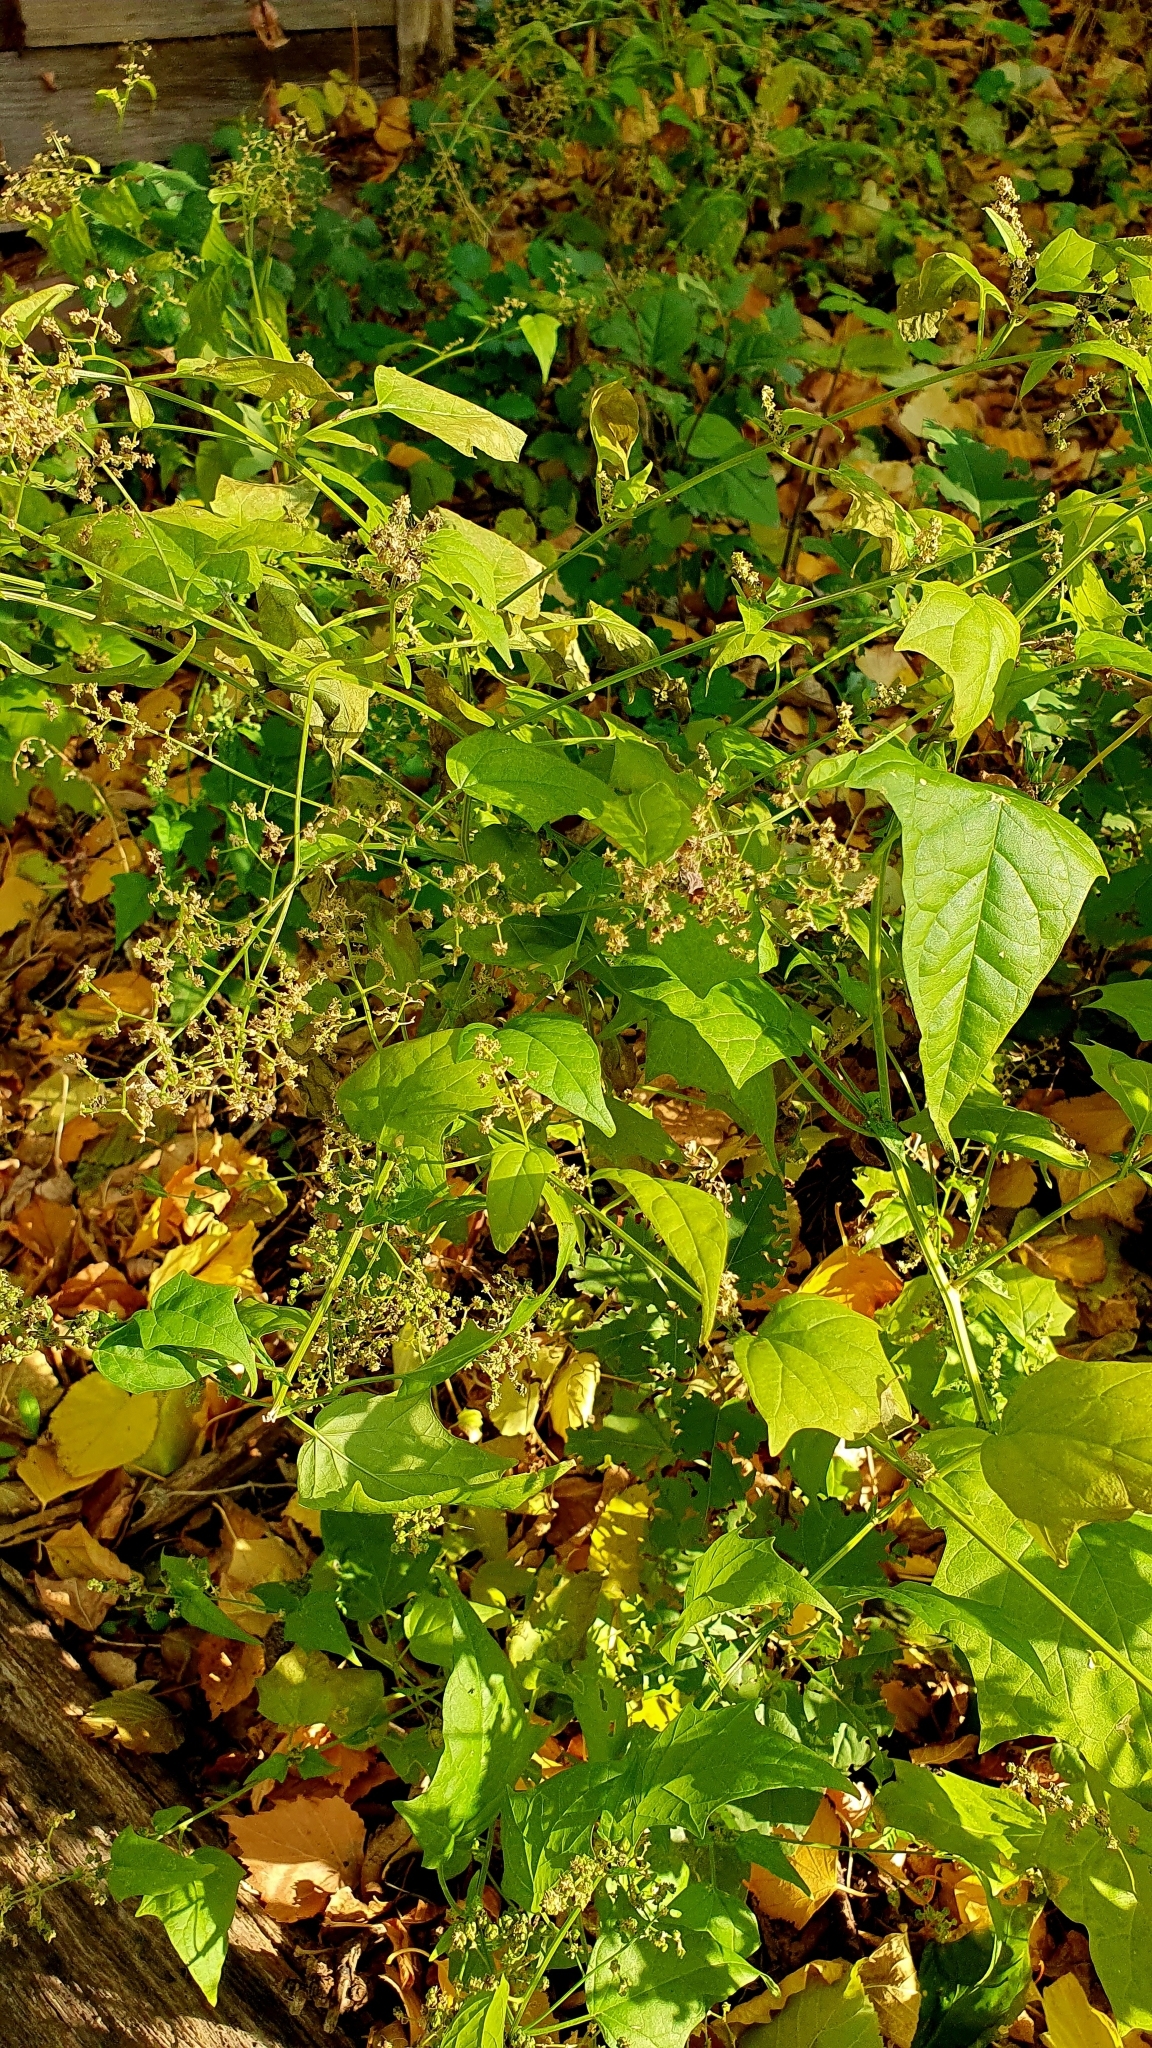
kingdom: Plantae
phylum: Tracheophyta
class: Magnoliopsida
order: Caryophyllales
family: Amaranthaceae
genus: Chenopodiastrum
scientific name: Chenopodiastrum hybridum
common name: Mapleleaf goosefoot
